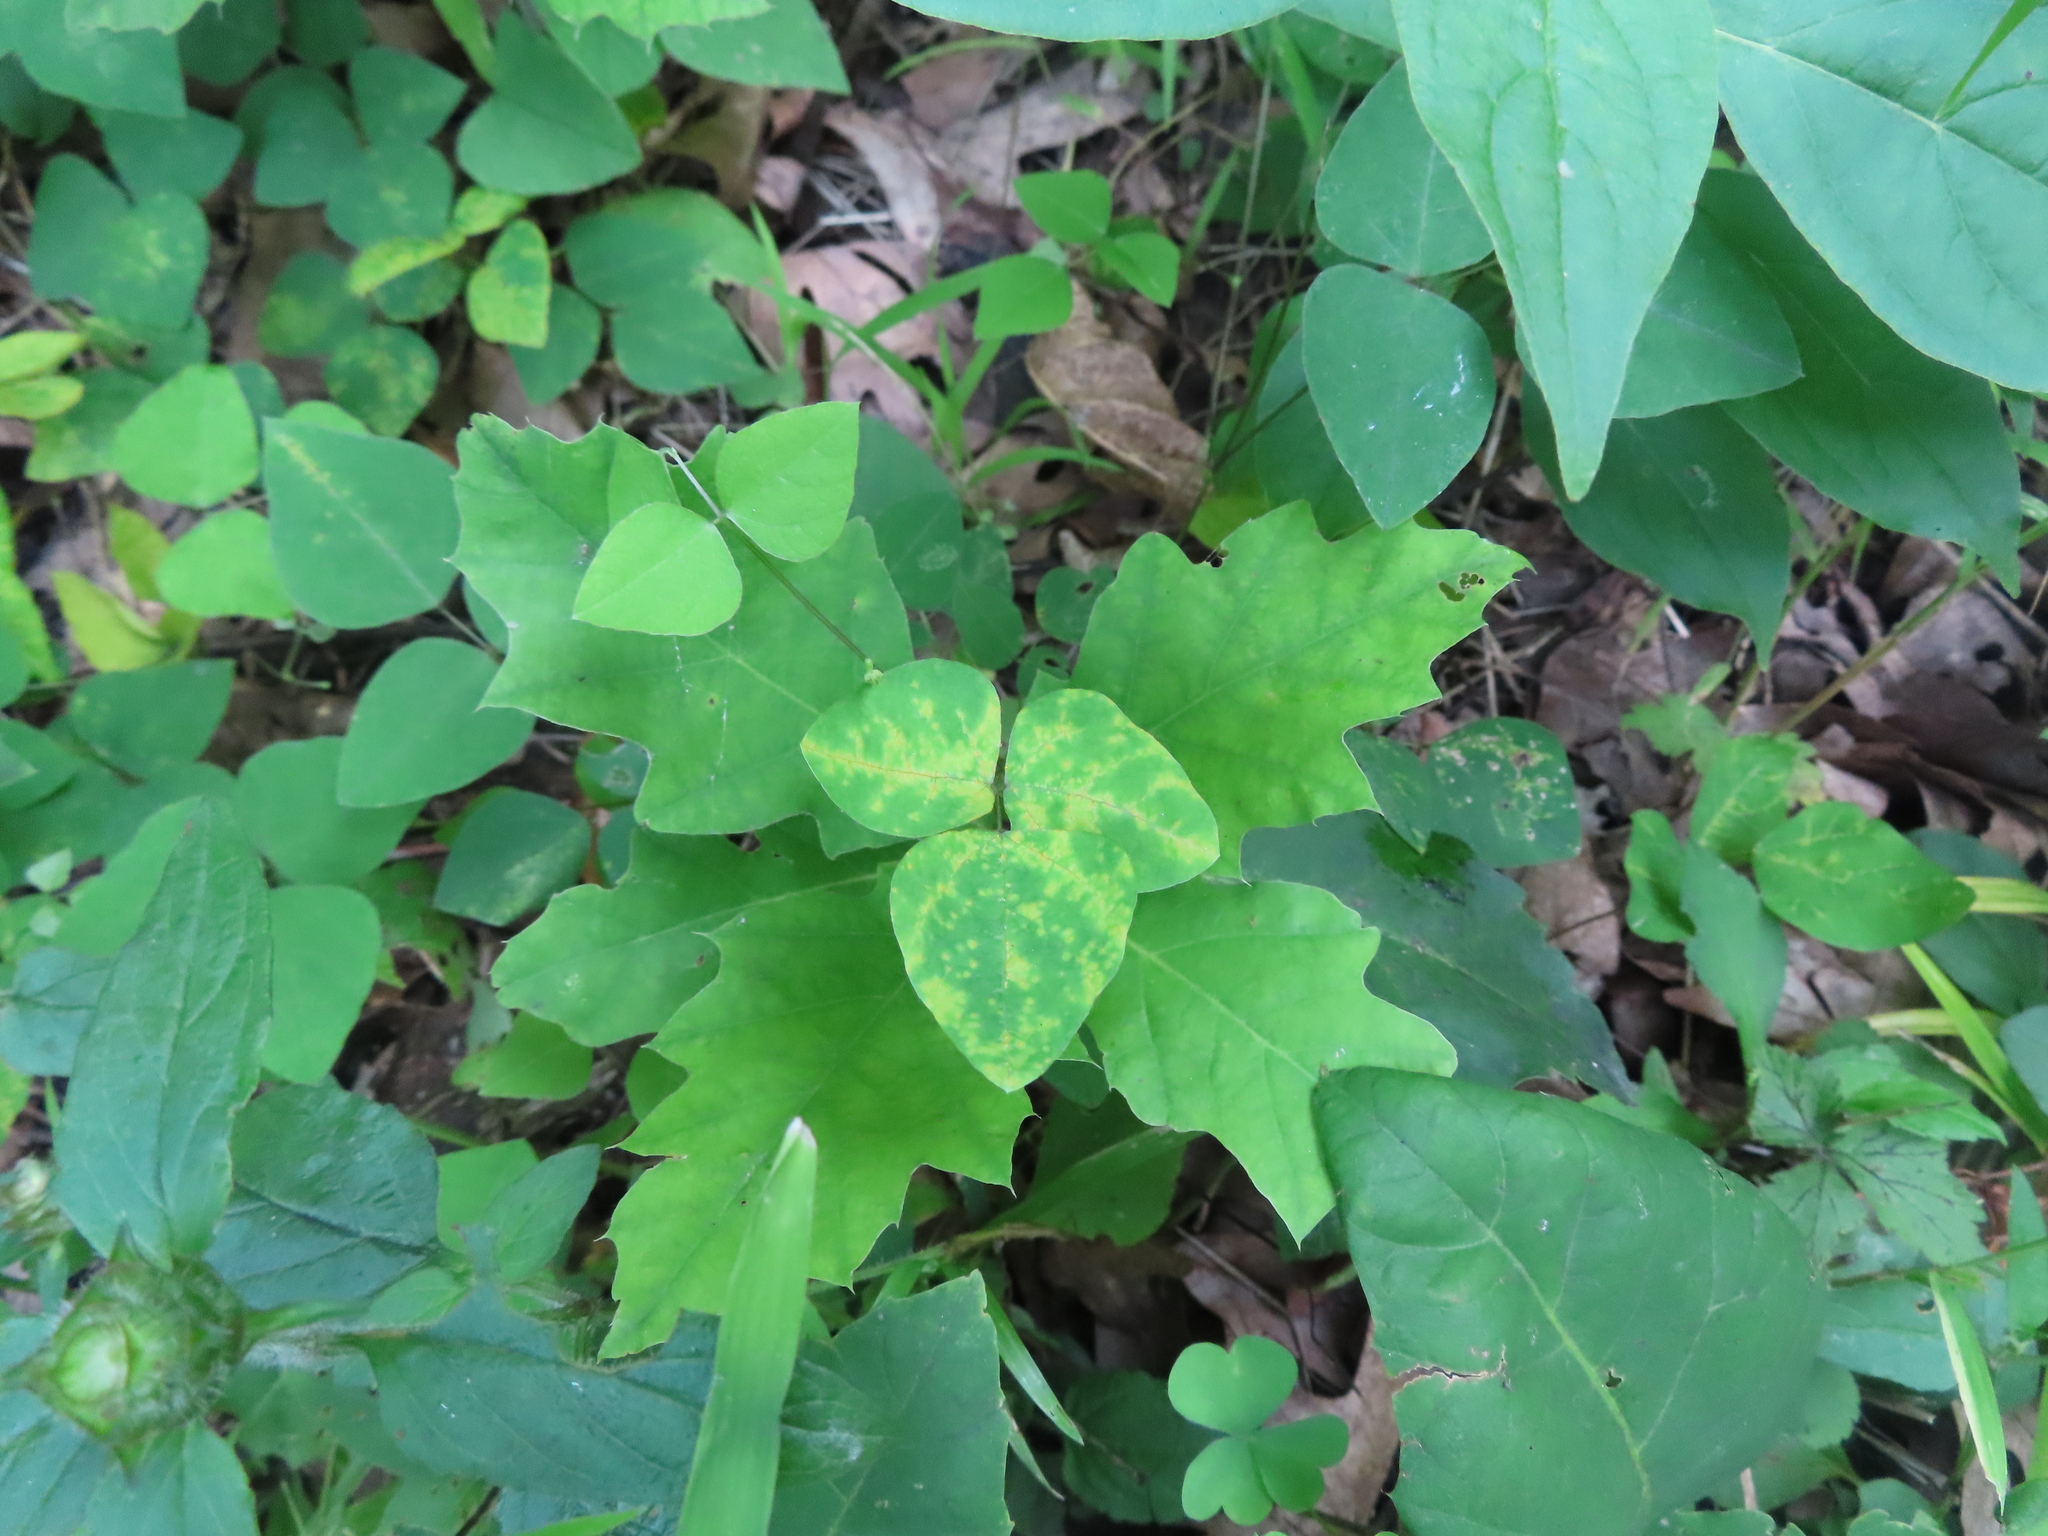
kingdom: Plantae
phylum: Tracheophyta
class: Magnoliopsida
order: Fabales
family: Fabaceae
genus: Amphicarpaea
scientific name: Amphicarpaea bracteata
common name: American hog peanut
